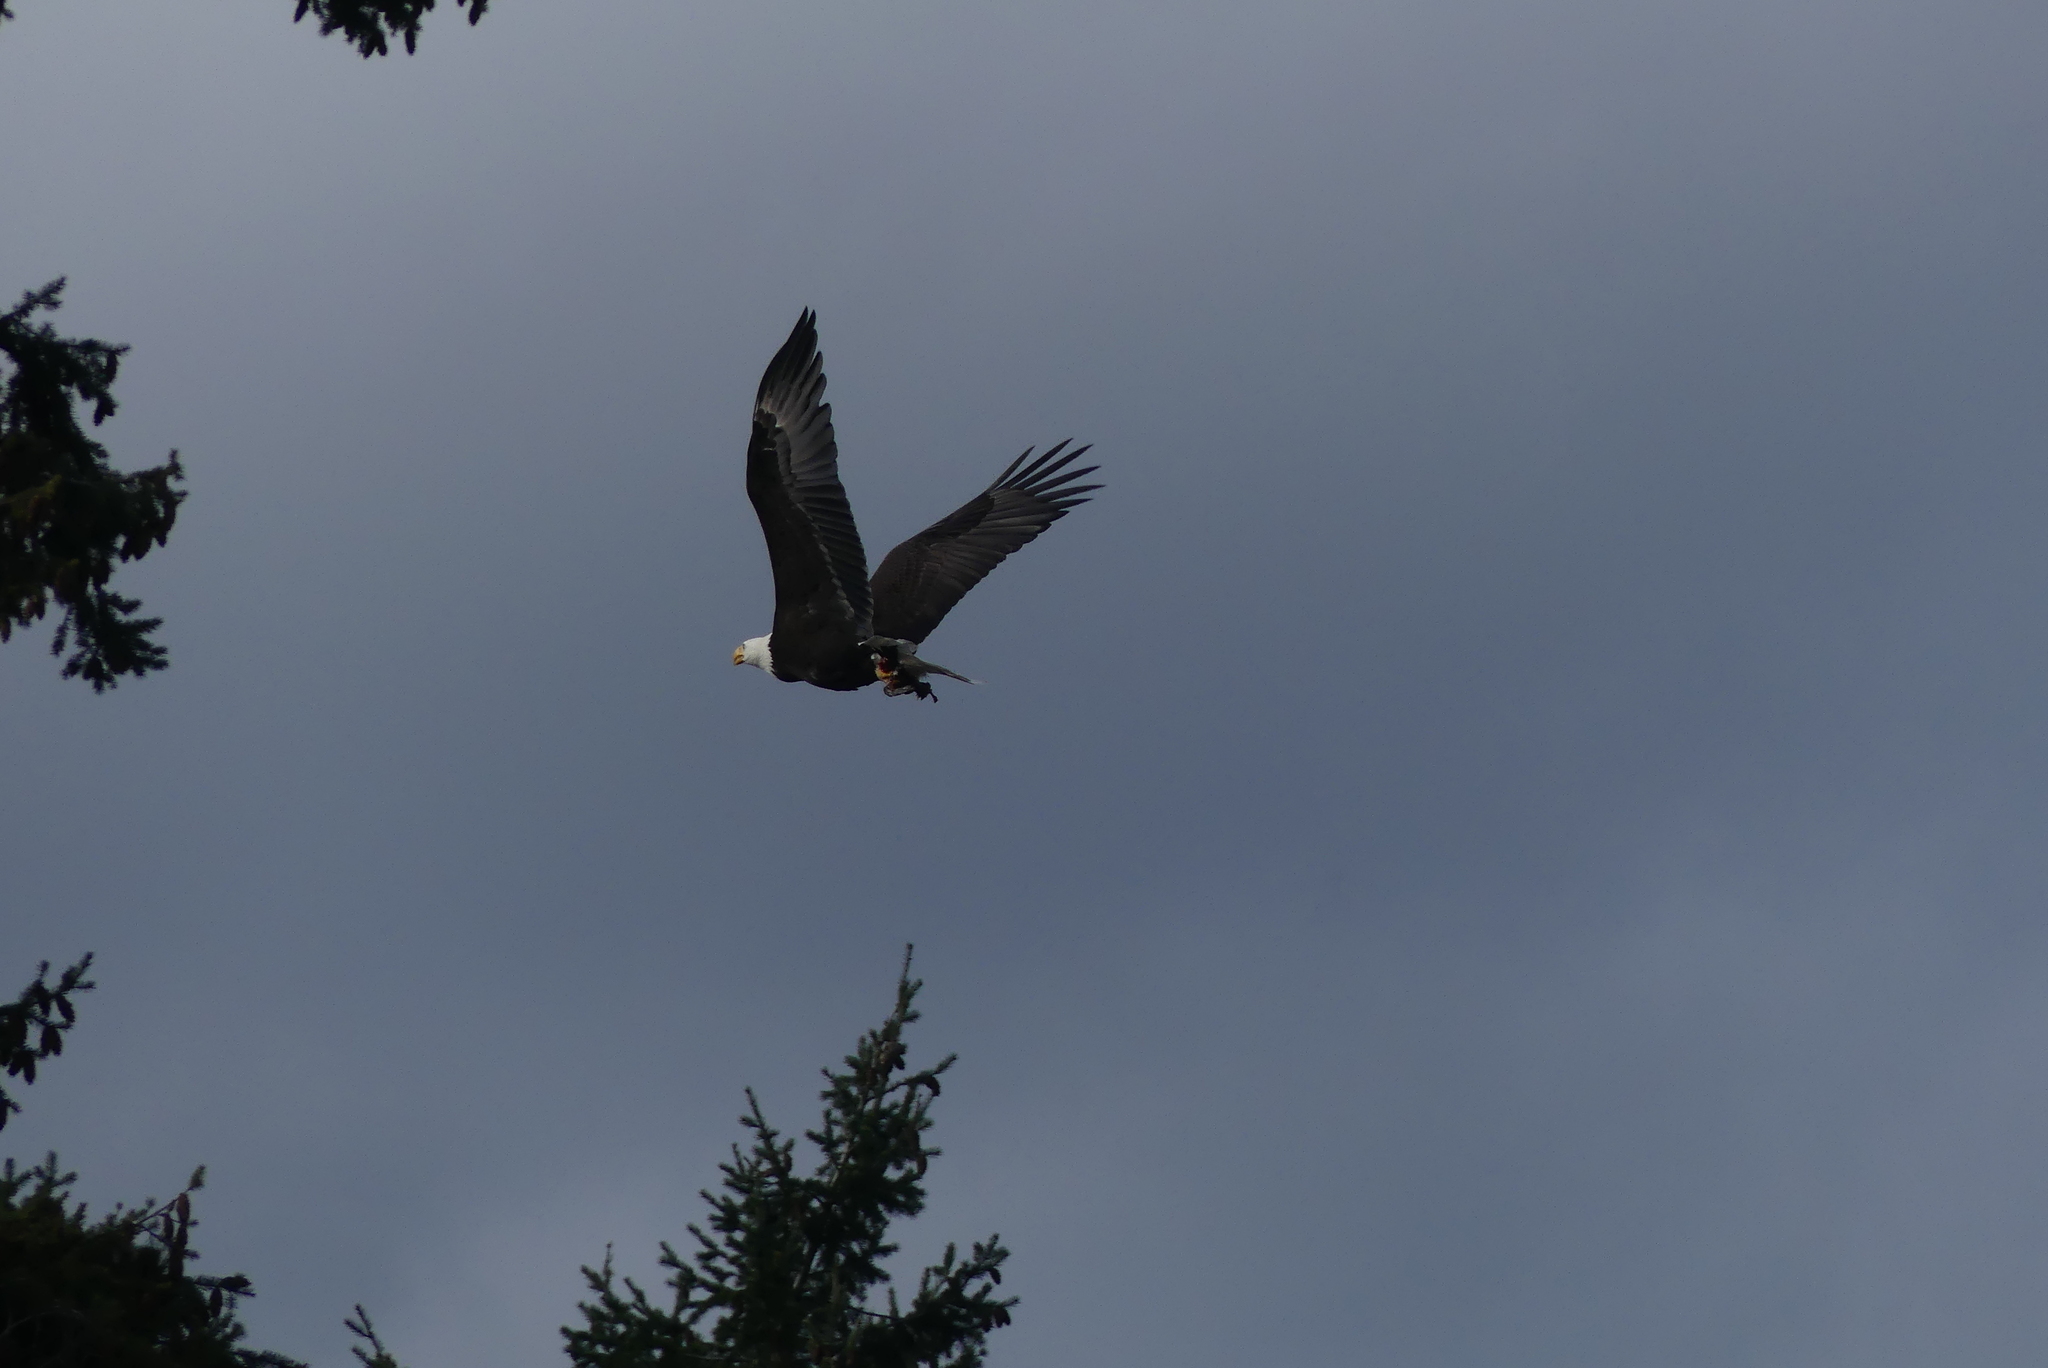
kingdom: Animalia
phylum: Chordata
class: Aves
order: Accipitriformes
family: Accipitridae
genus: Haliaeetus
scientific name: Haliaeetus leucocephalus
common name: Bald eagle
